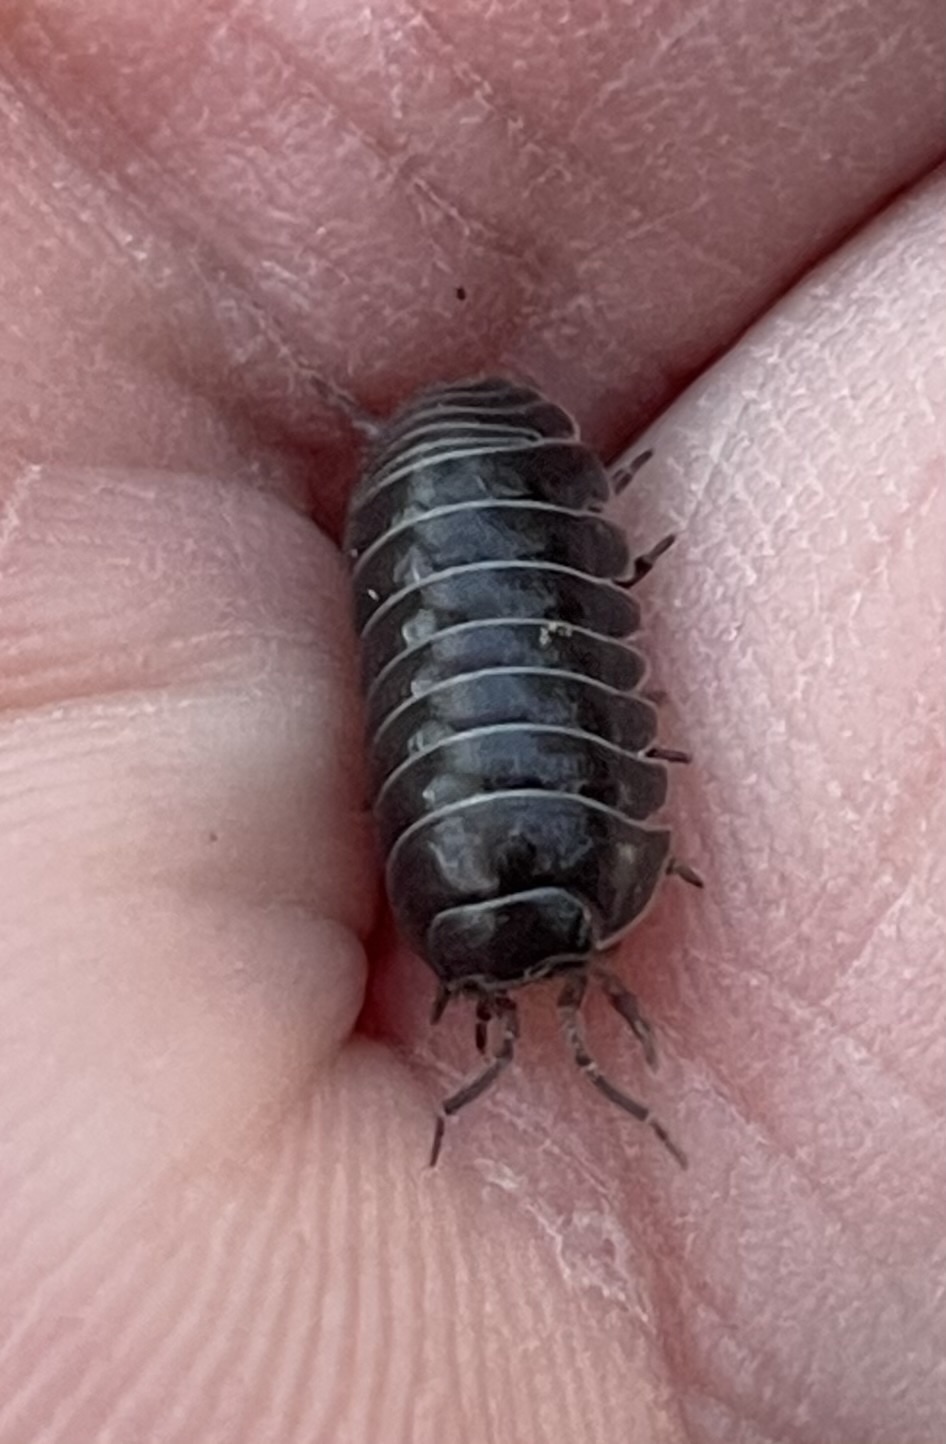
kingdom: Animalia
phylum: Arthropoda
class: Malacostraca
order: Isopoda
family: Armadillidiidae
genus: Armadillidium
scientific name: Armadillidium vulgare
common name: Common pill woodlouse
